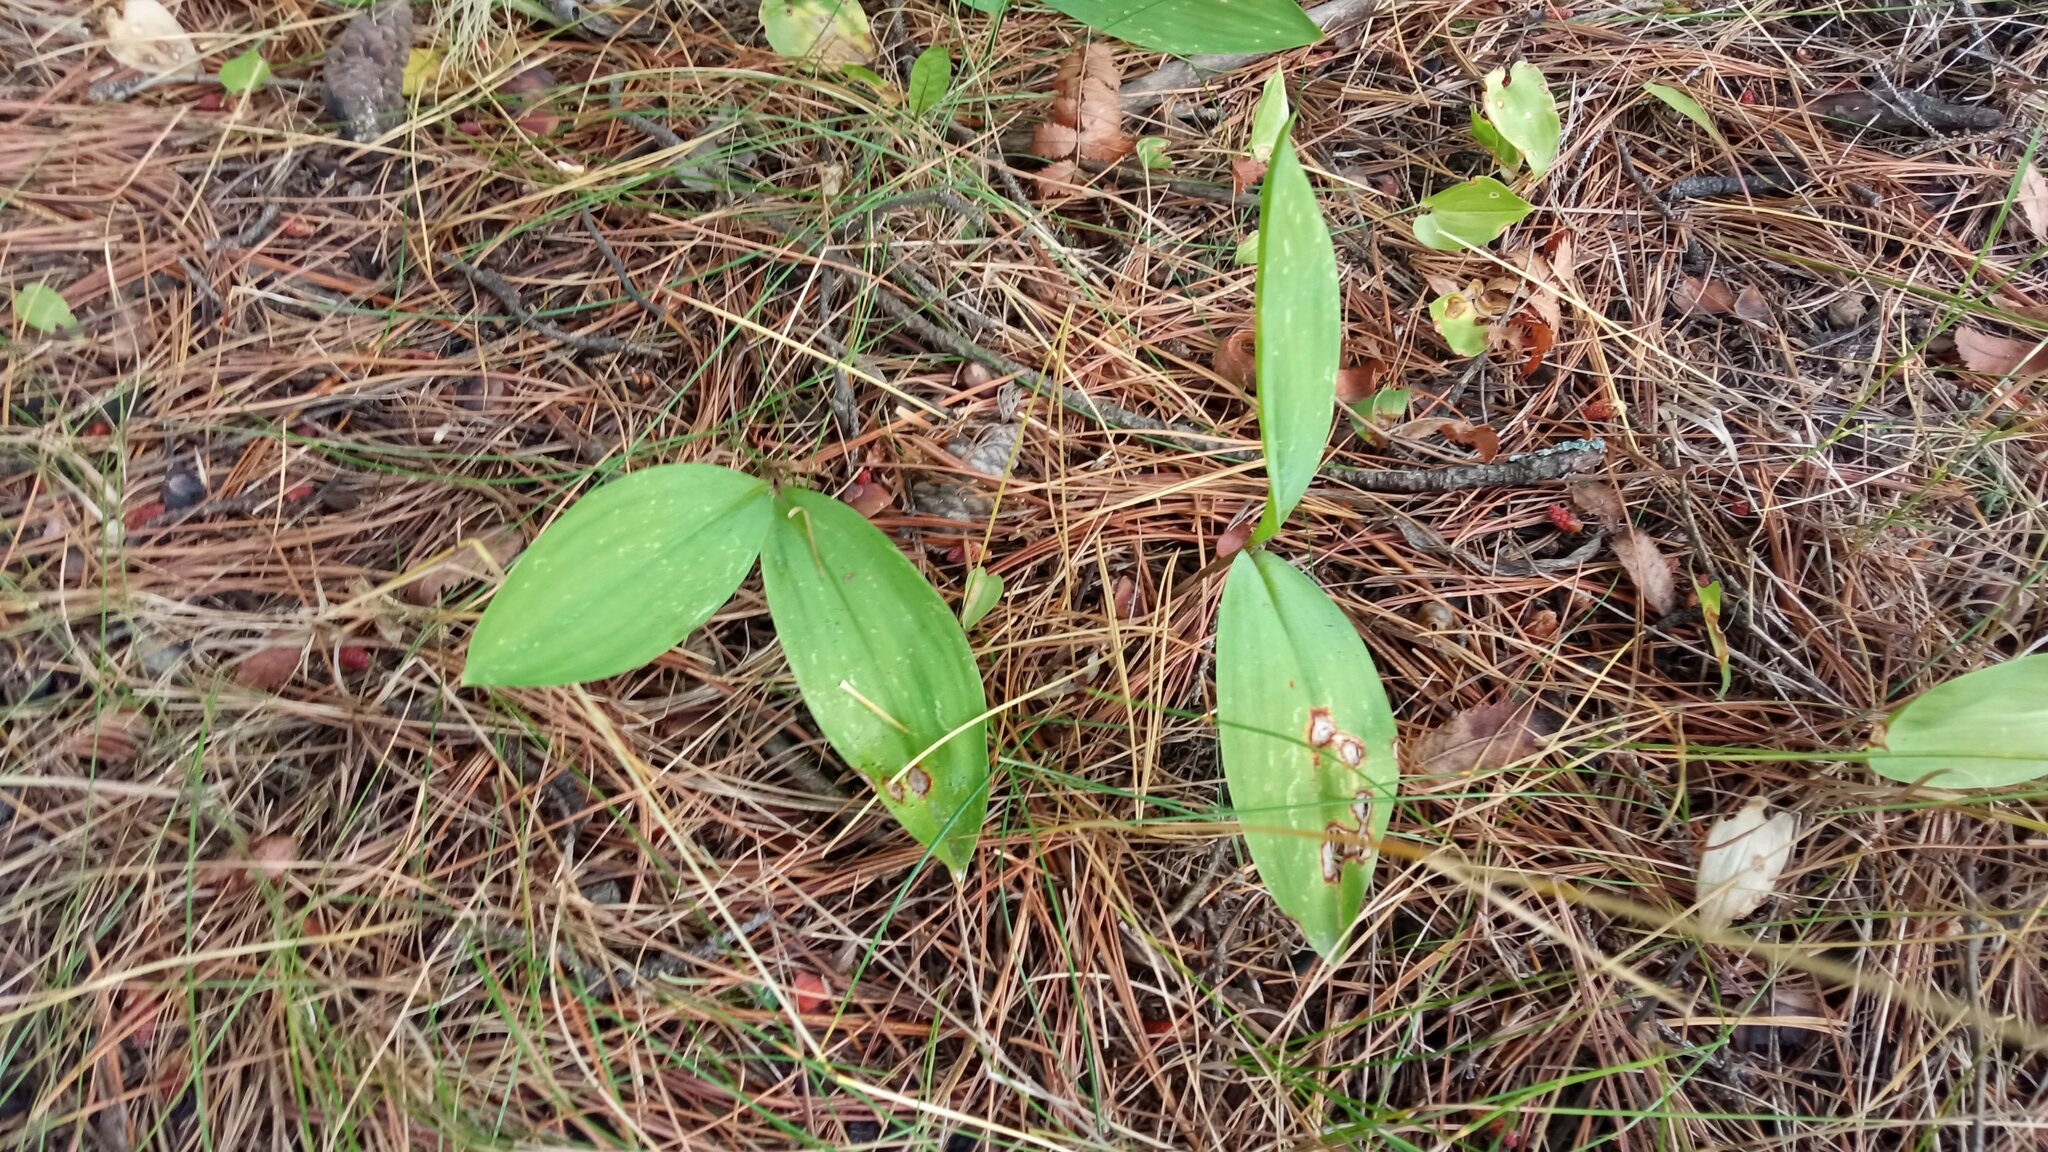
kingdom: Plantae
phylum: Tracheophyta
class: Liliopsida
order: Asparagales
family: Asparagaceae
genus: Convallaria
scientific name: Convallaria majalis
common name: Lily-of-the-valley
